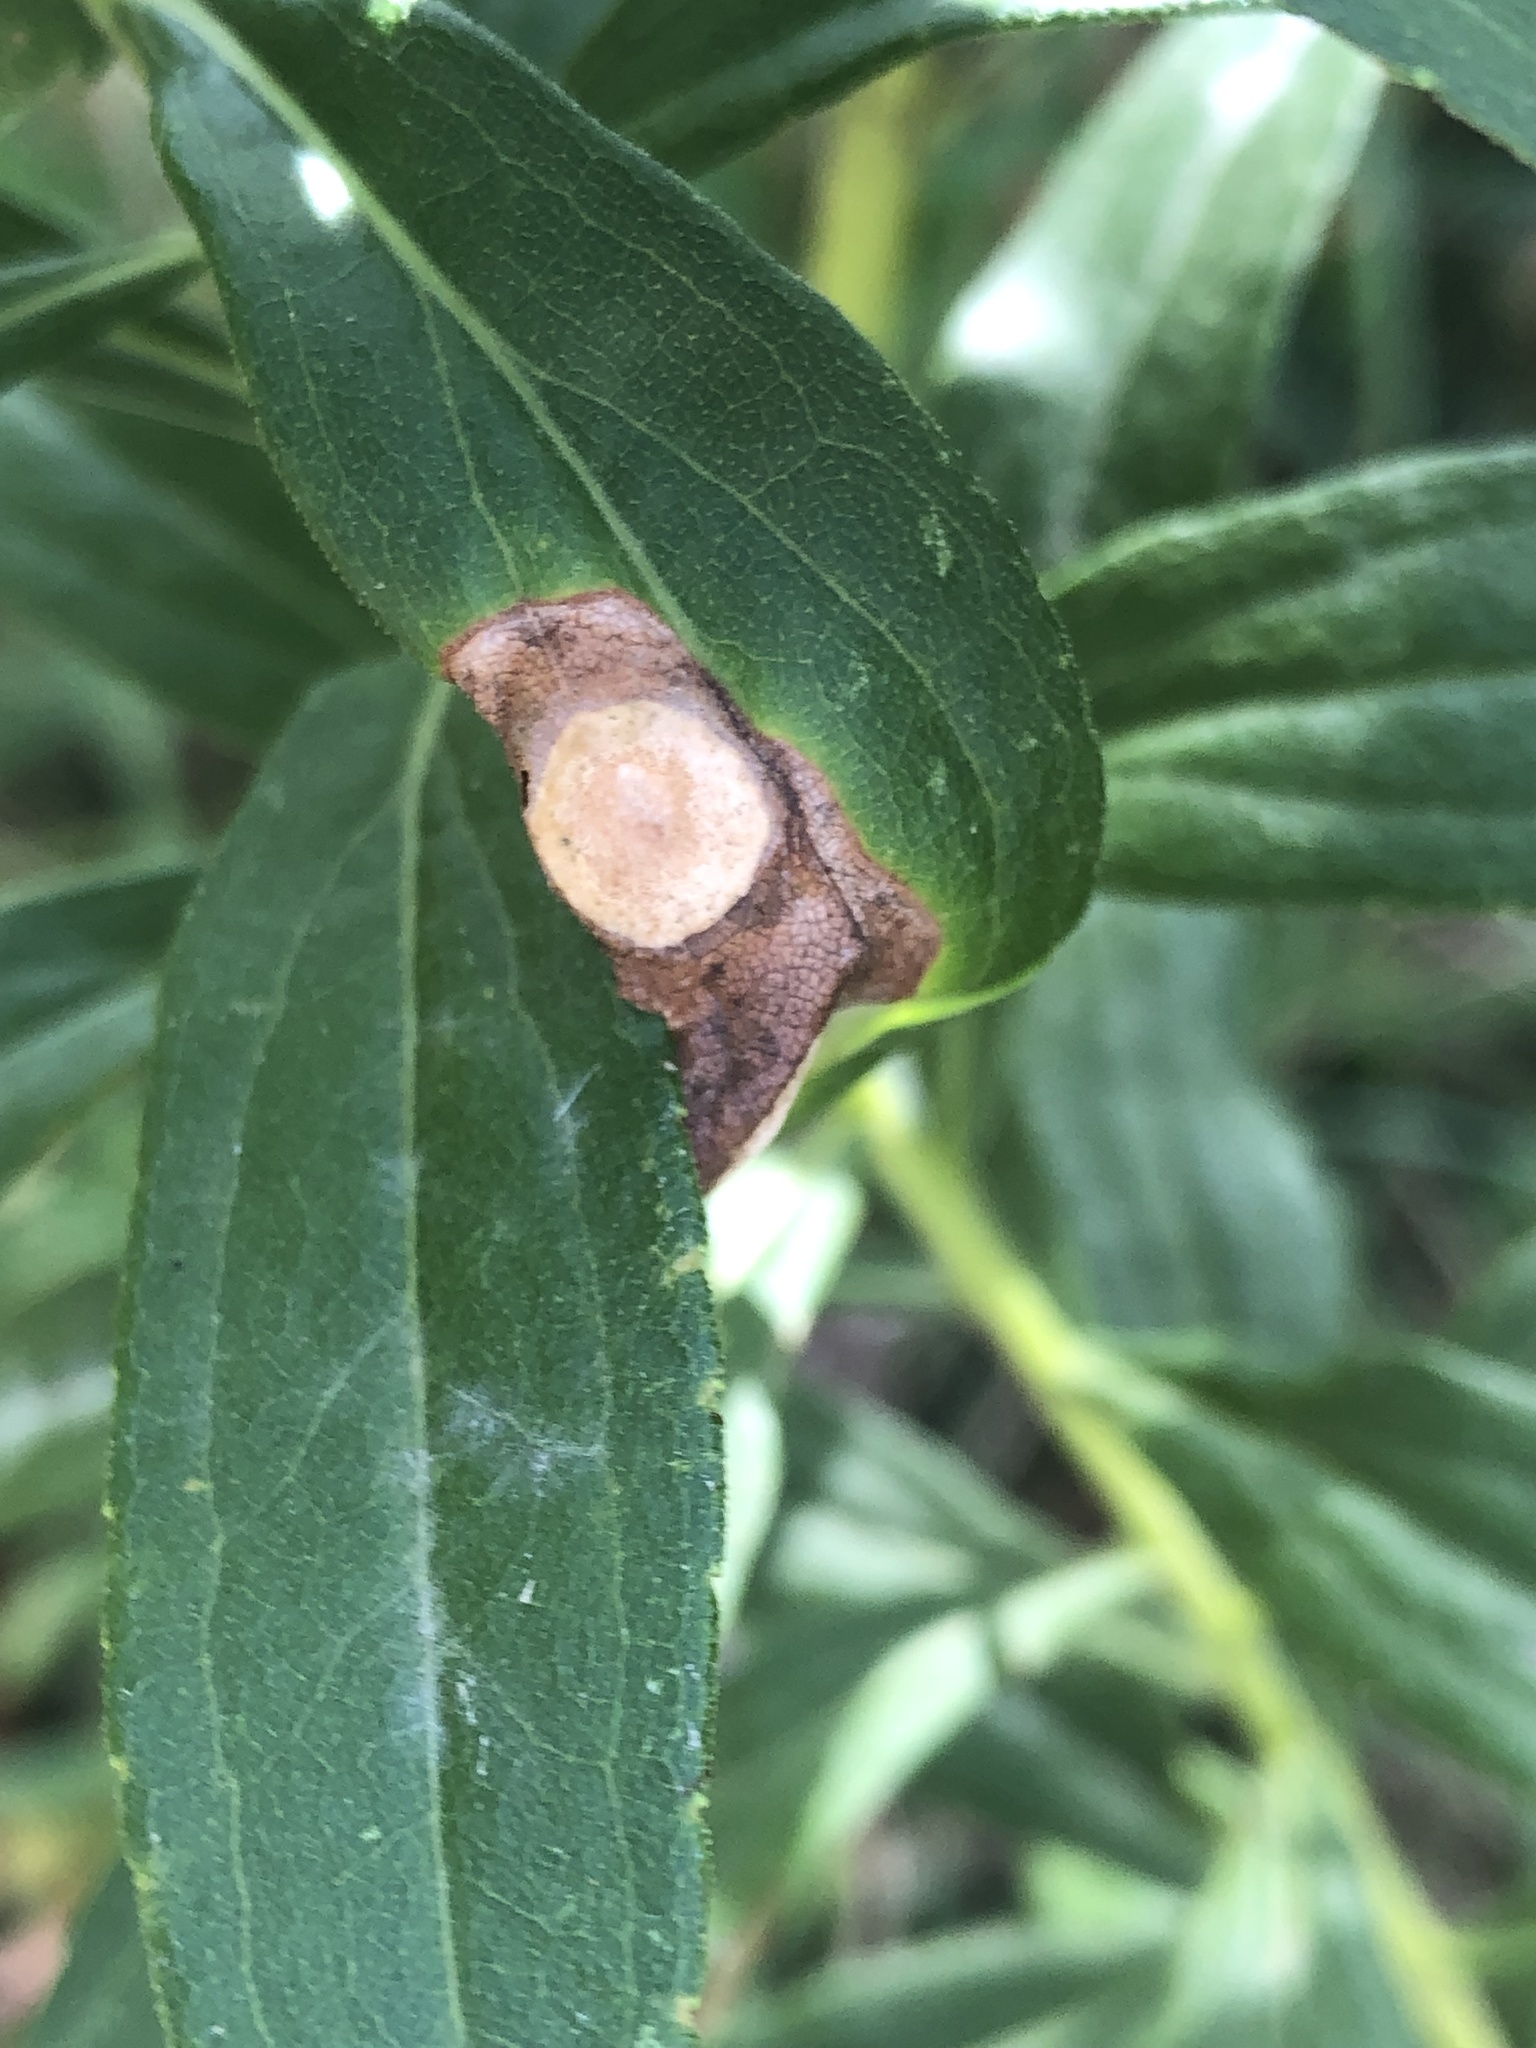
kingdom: Animalia
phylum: Arthropoda
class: Insecta
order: Diptera
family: Cecidomyiidae
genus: Asteromyia
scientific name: Asteromyia carbonifera
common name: Carbonifera goldenrod gall midge
